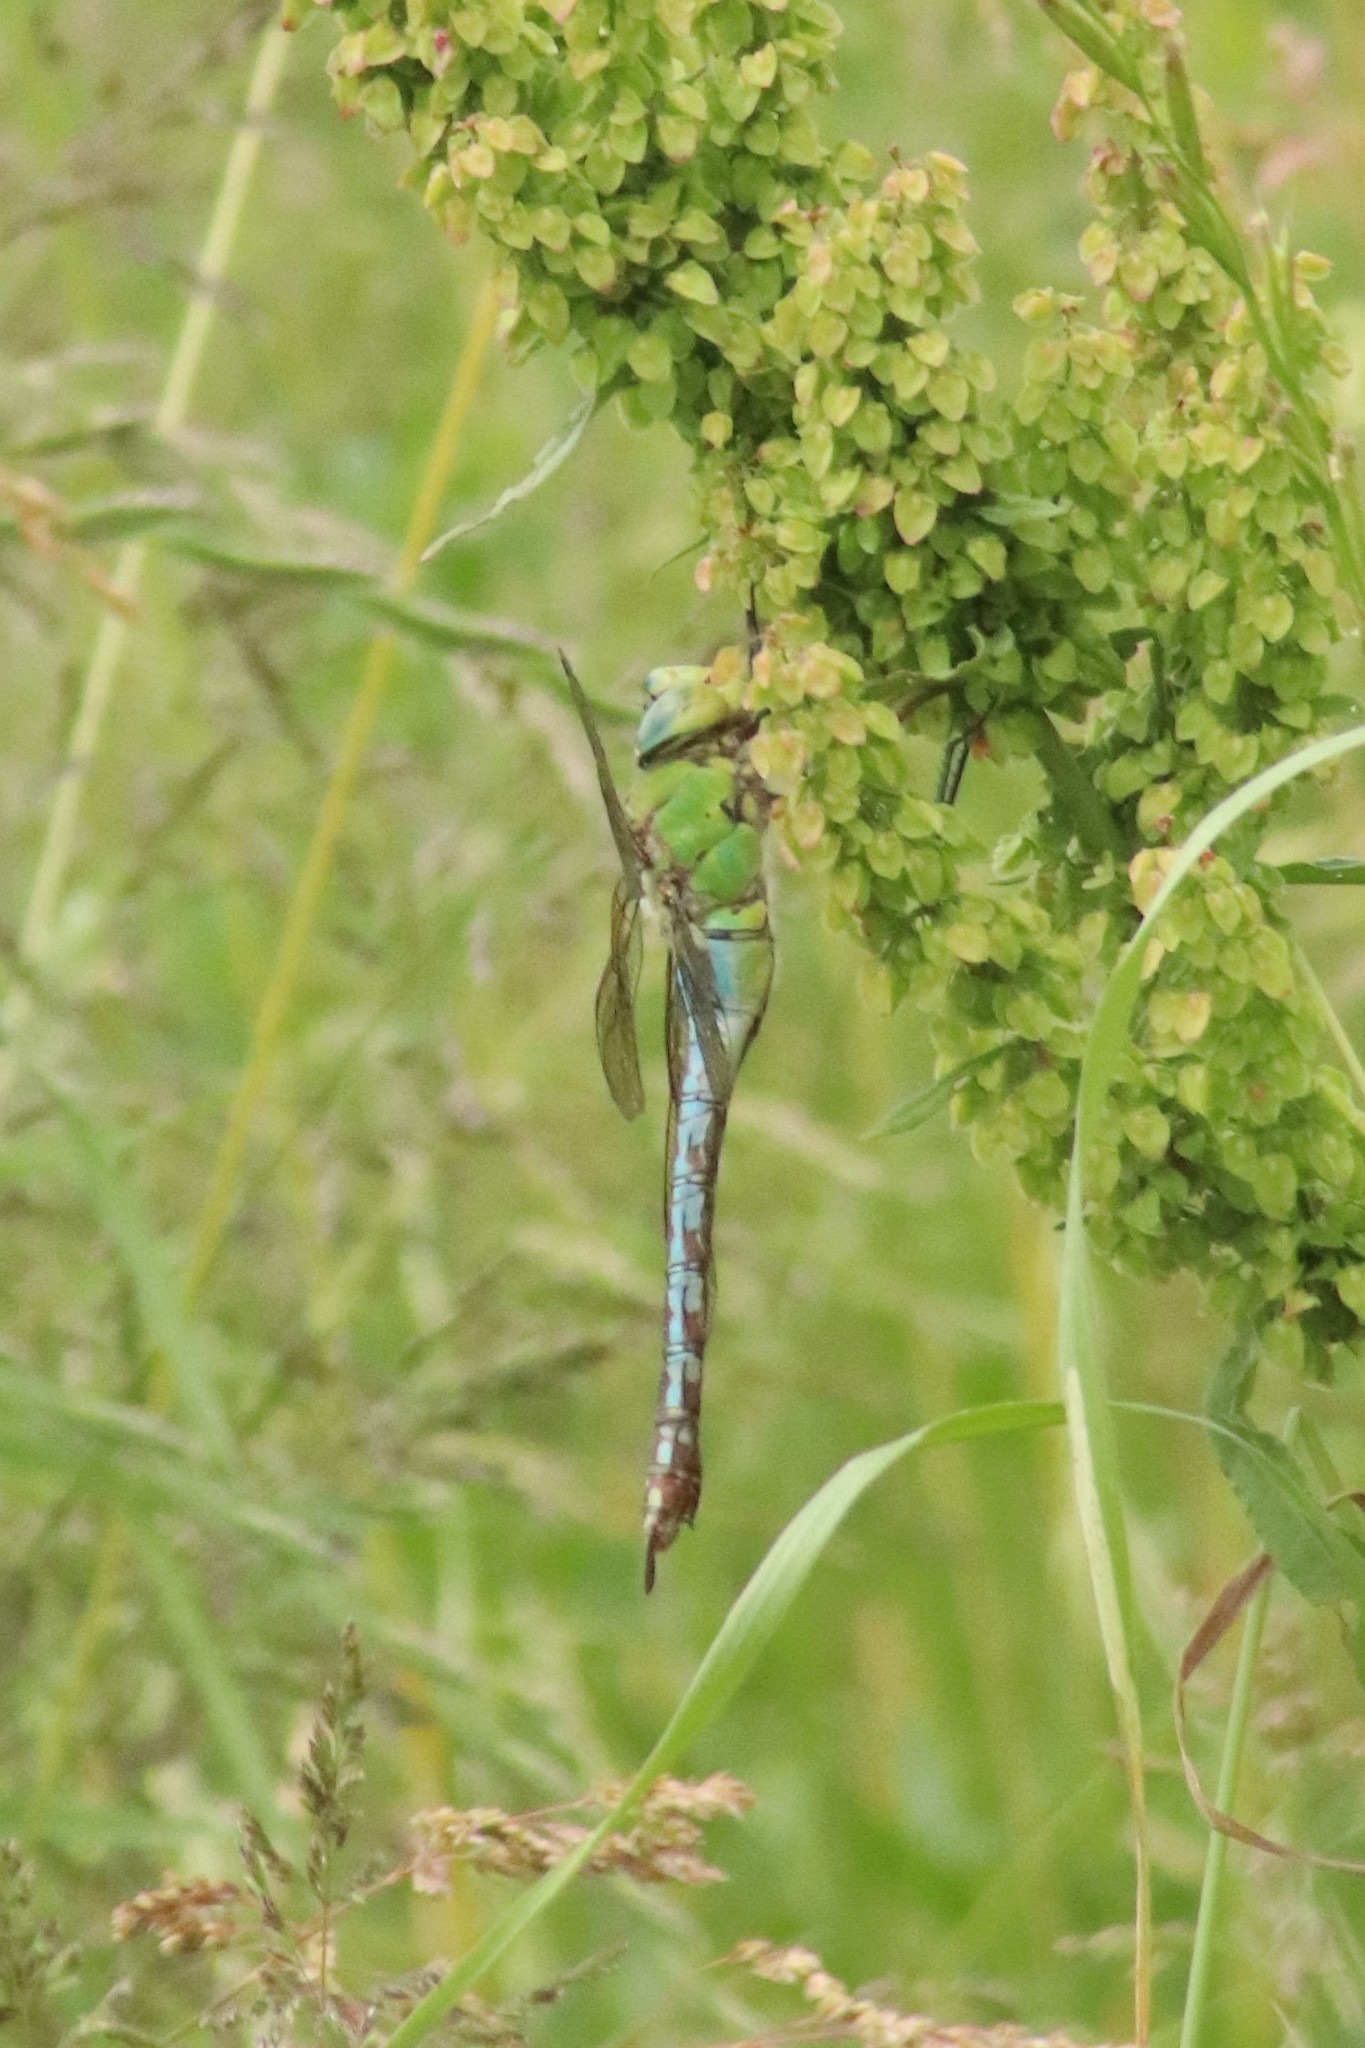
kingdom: Animalia
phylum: Arthropoda
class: Insecta
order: Odonata
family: Aeshnidae
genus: Anax
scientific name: Anax imperator
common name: Emperor dragonfly
